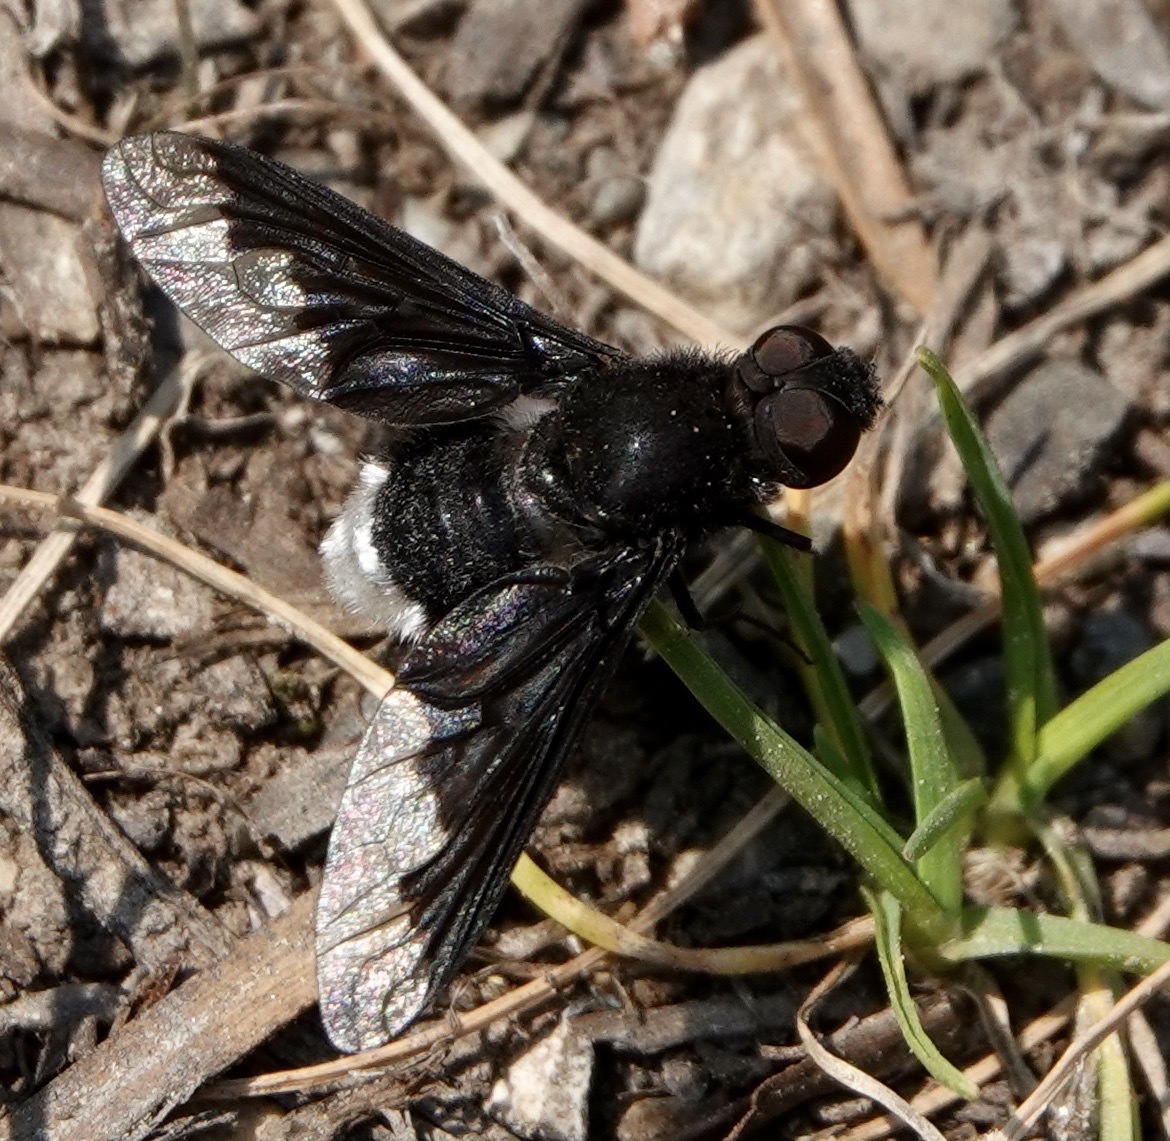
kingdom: Animalia
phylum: Arthropoda
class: Insecta
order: Diptera
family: Bombyliidae
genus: Anthrax
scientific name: Anthrax analis
